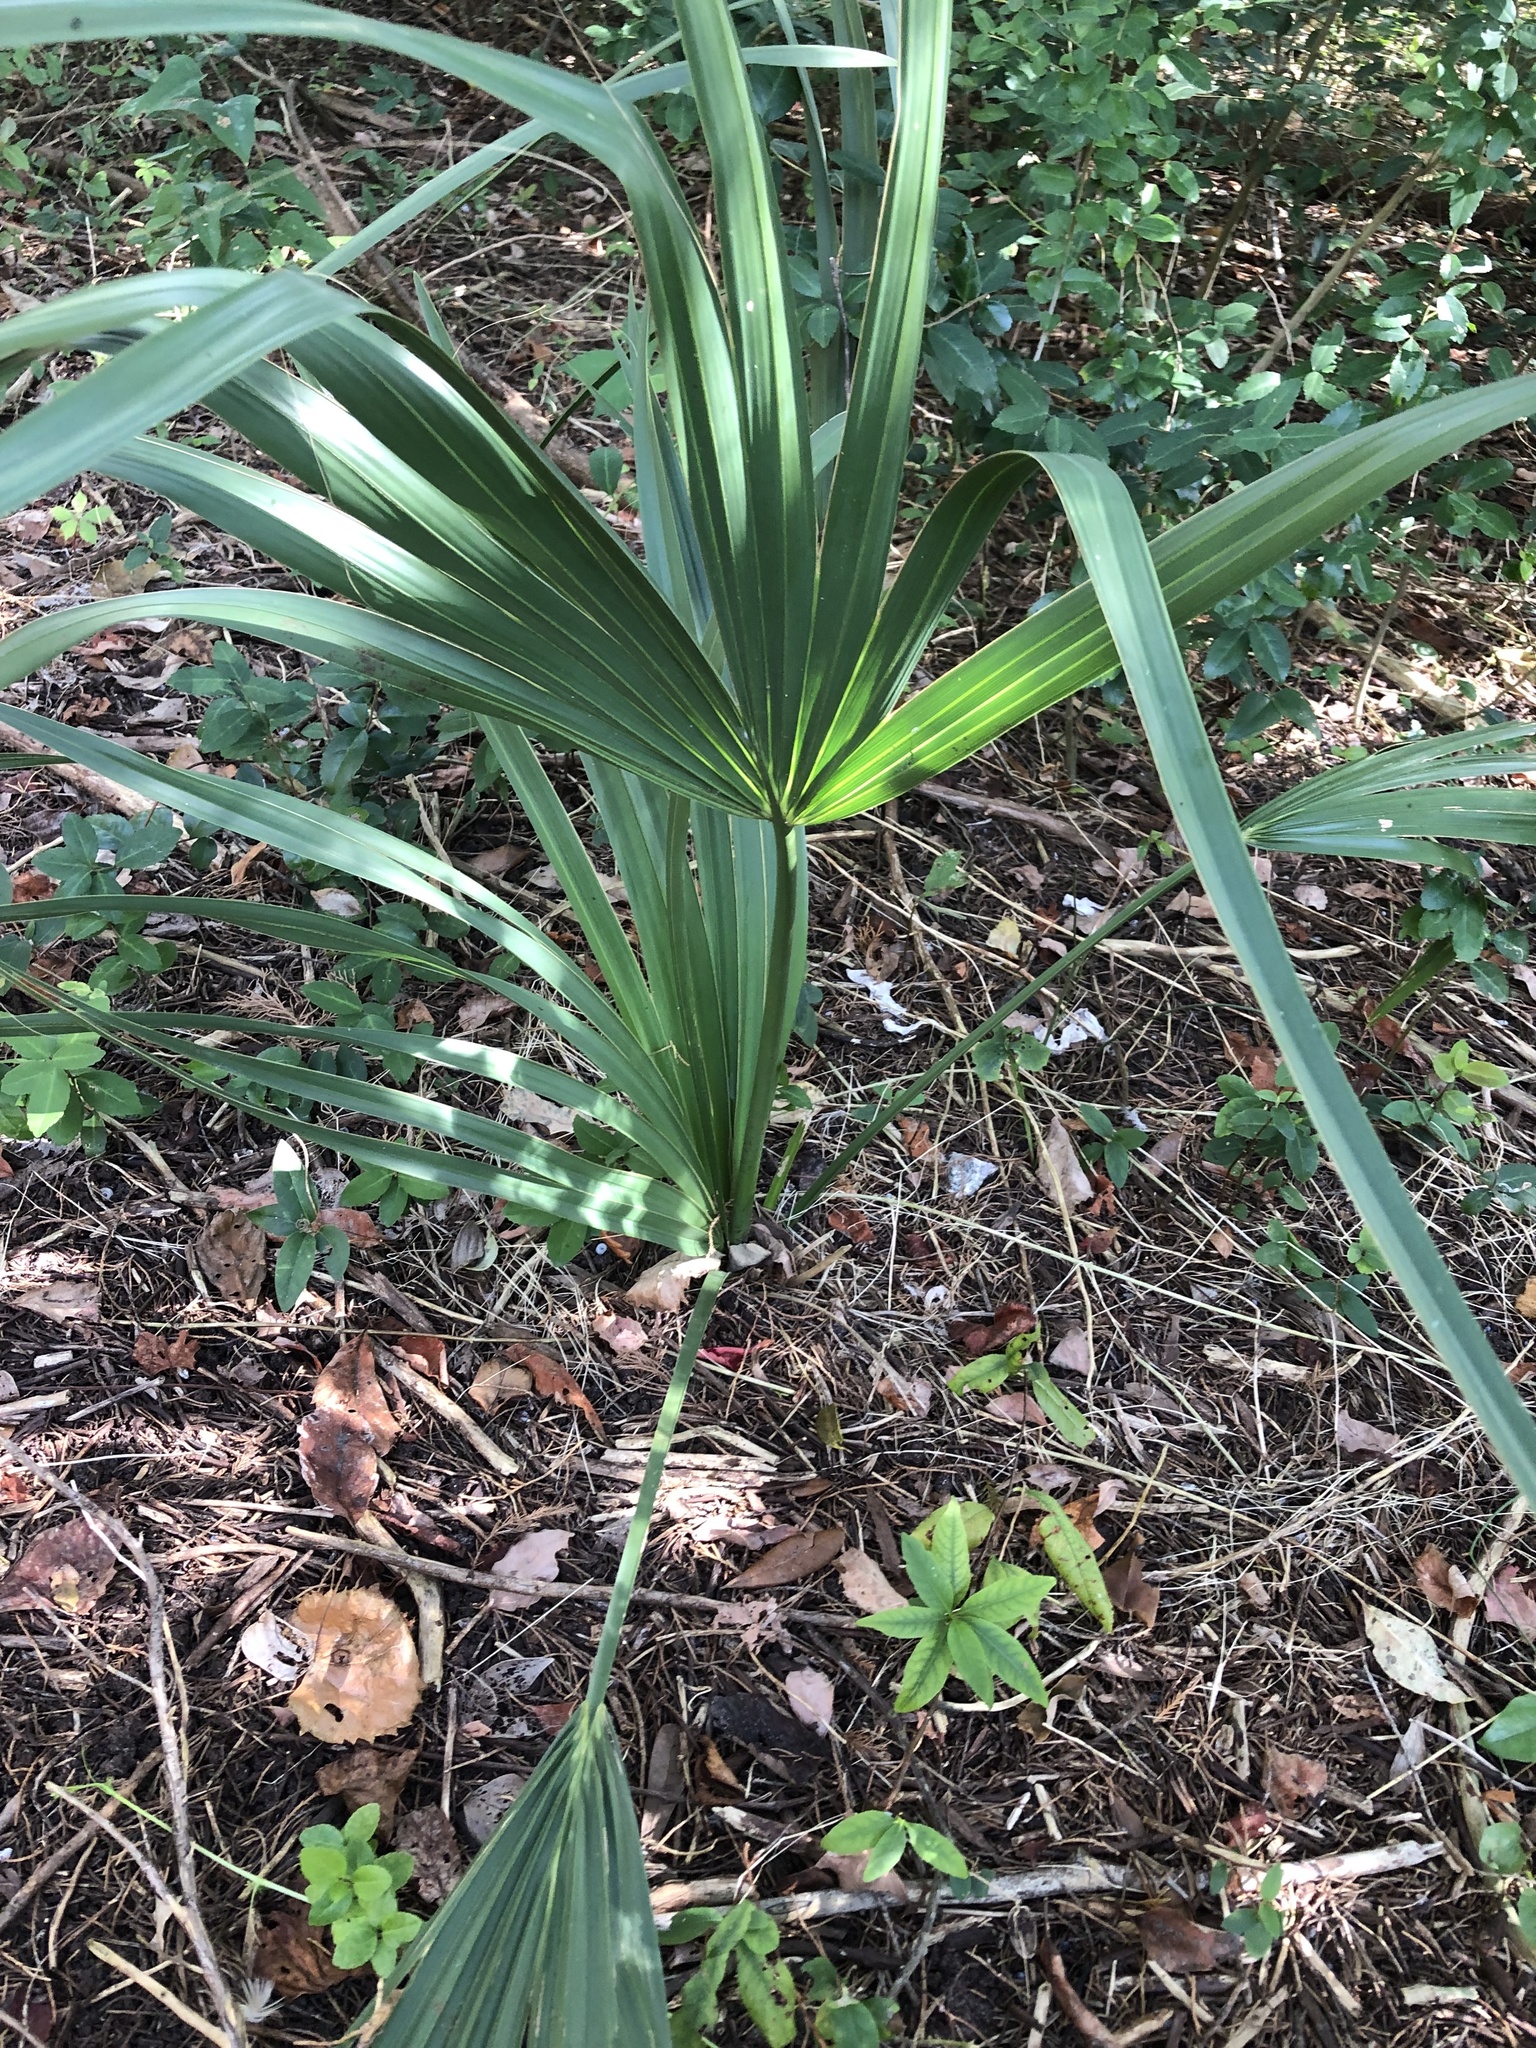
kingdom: Plantae
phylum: Tracheophyta
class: Liliopsida
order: Arecales
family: Arecaceae
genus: Sabal
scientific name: Sabal minor
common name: Dwarf palmetto
